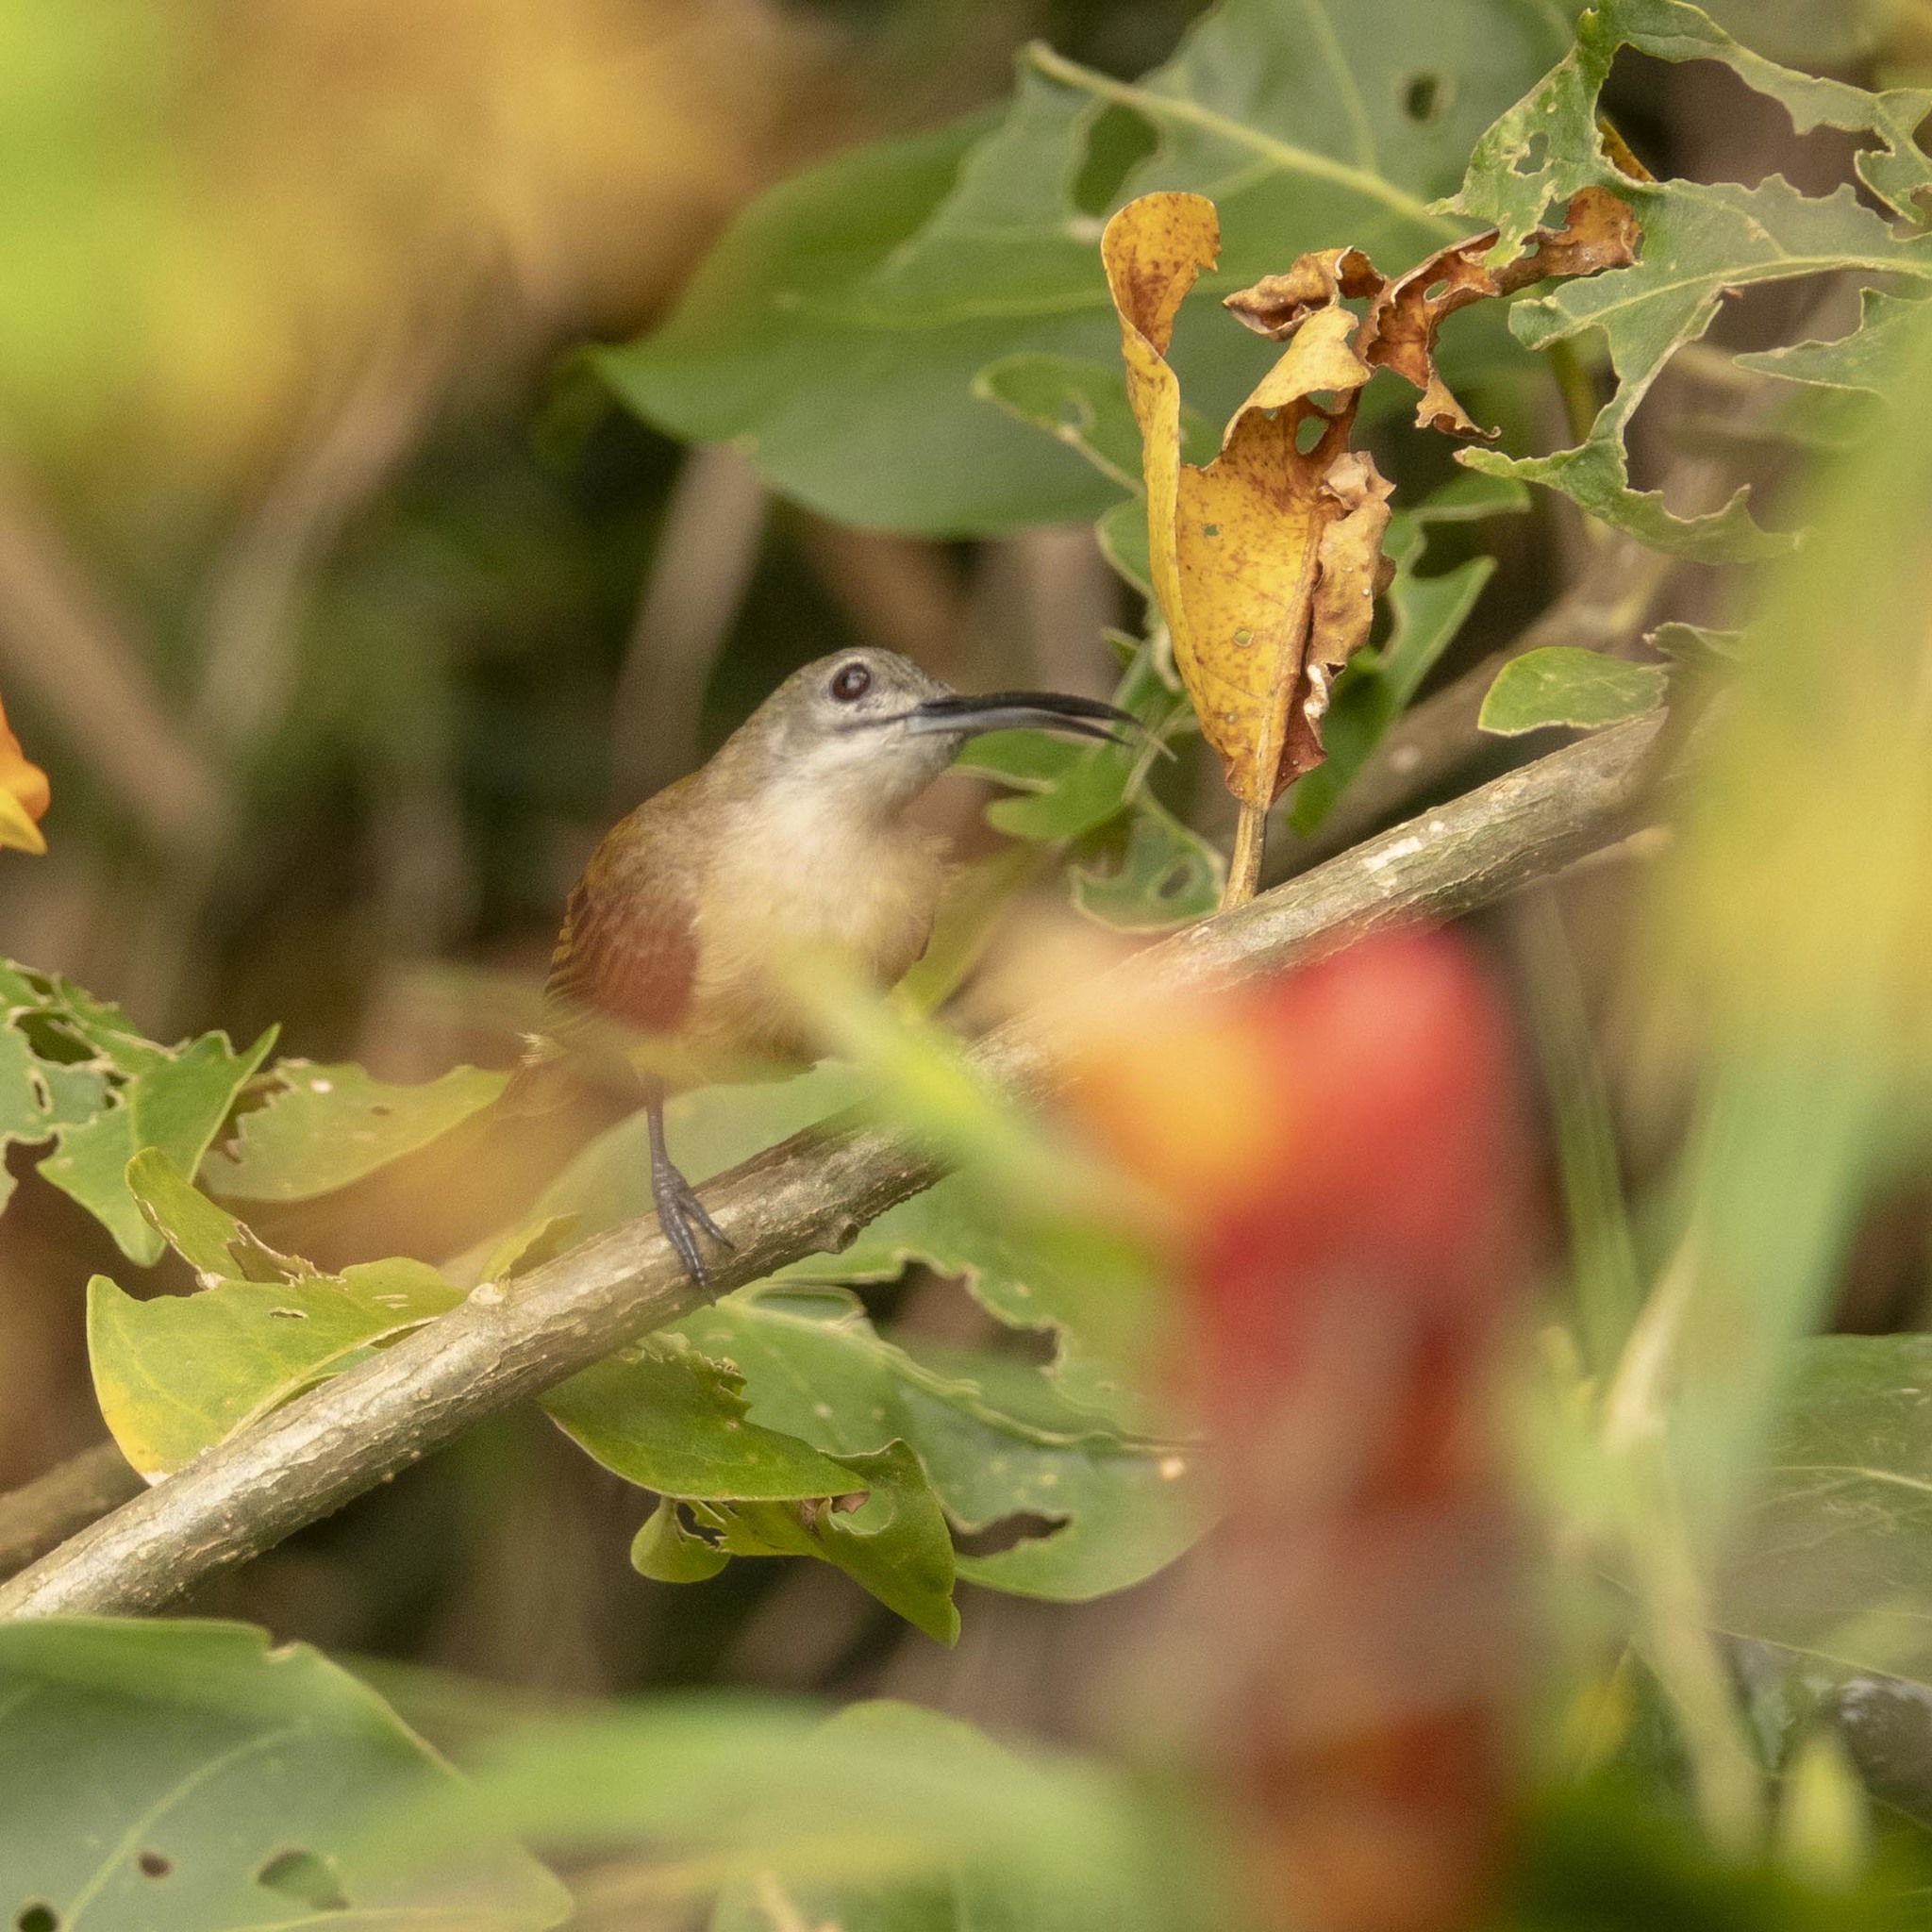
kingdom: Animalia
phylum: Chordata
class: Aves
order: Passeriformes
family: Nectariniidae
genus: Arachnothera
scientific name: Arachnothera longirostra
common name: Little spiderhunter
